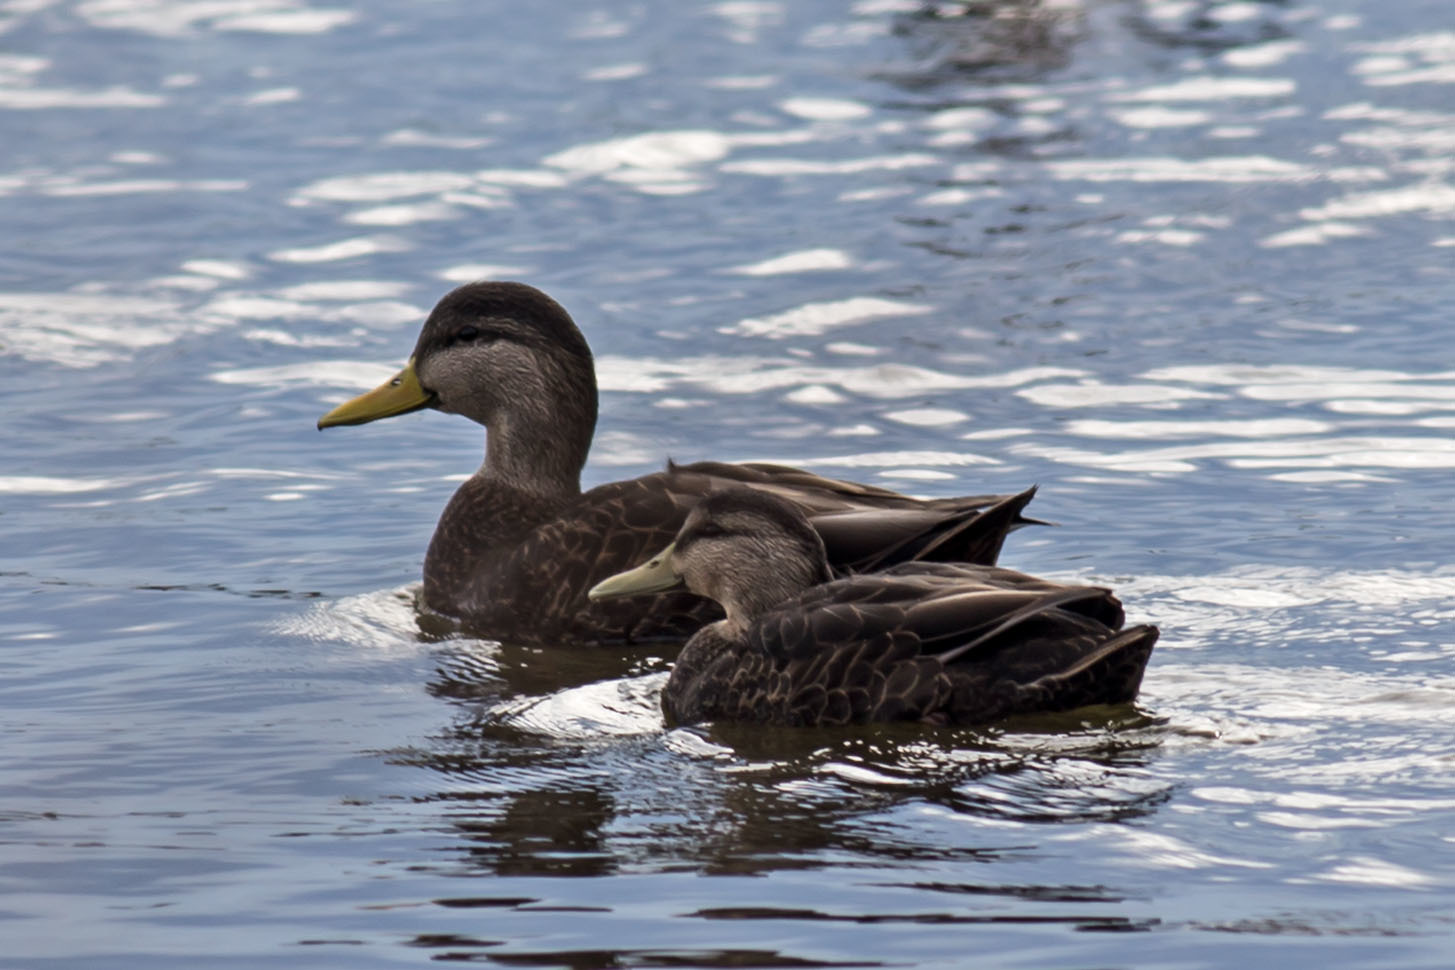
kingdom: Animalia
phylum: Chordata
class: Aves
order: Anseriformes
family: Anatidae
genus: Anas
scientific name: Anas rubripes
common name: American black duck
